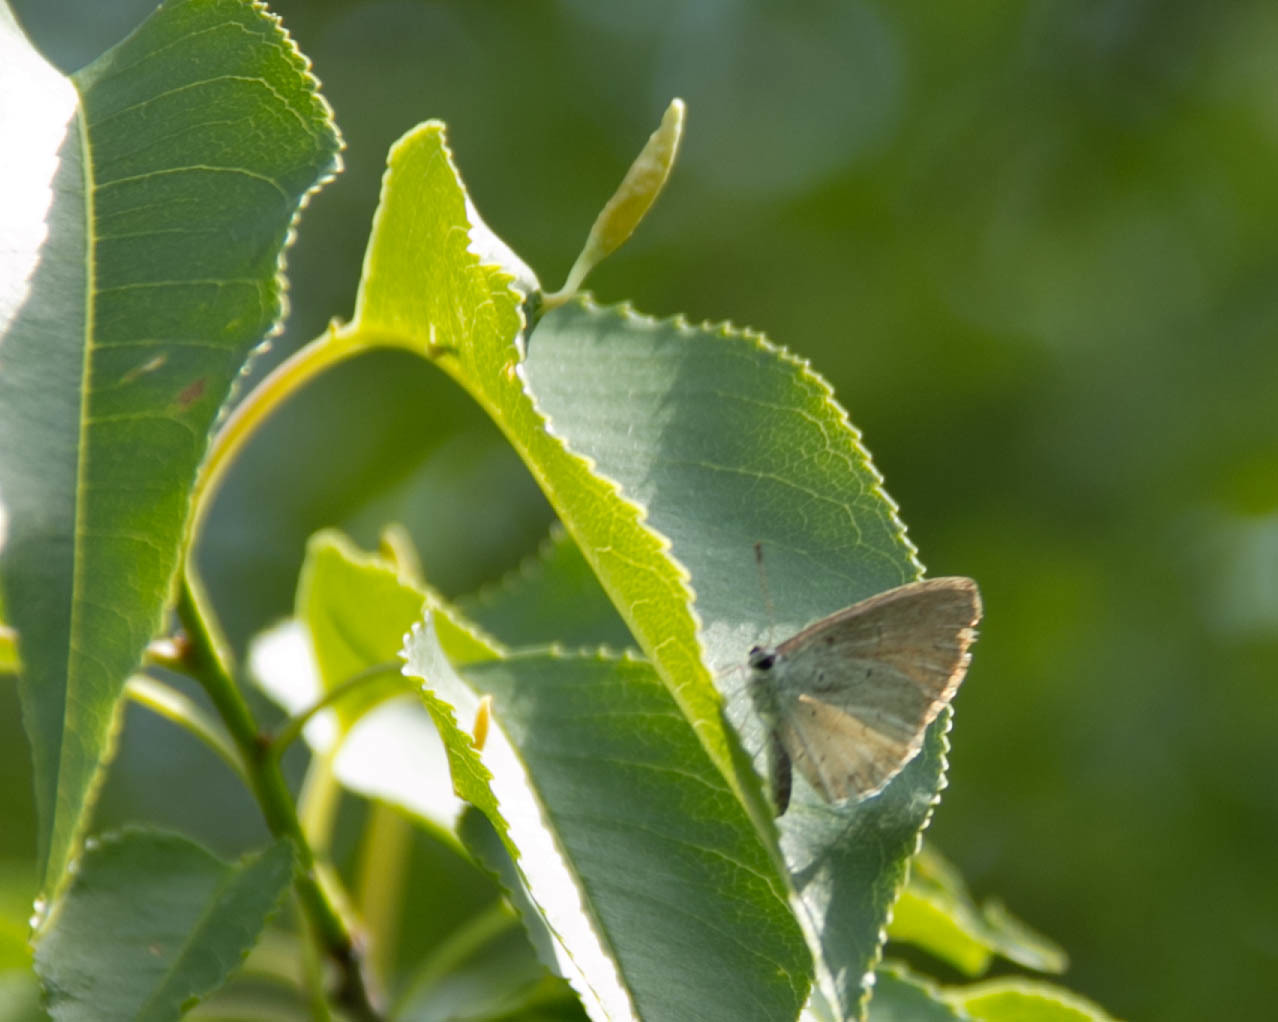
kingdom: Animalia
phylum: Arthropoda
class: Insecta
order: Lepidoptera
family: Lycaenidae
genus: Cyaniris
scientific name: Cyaniris neglecta
